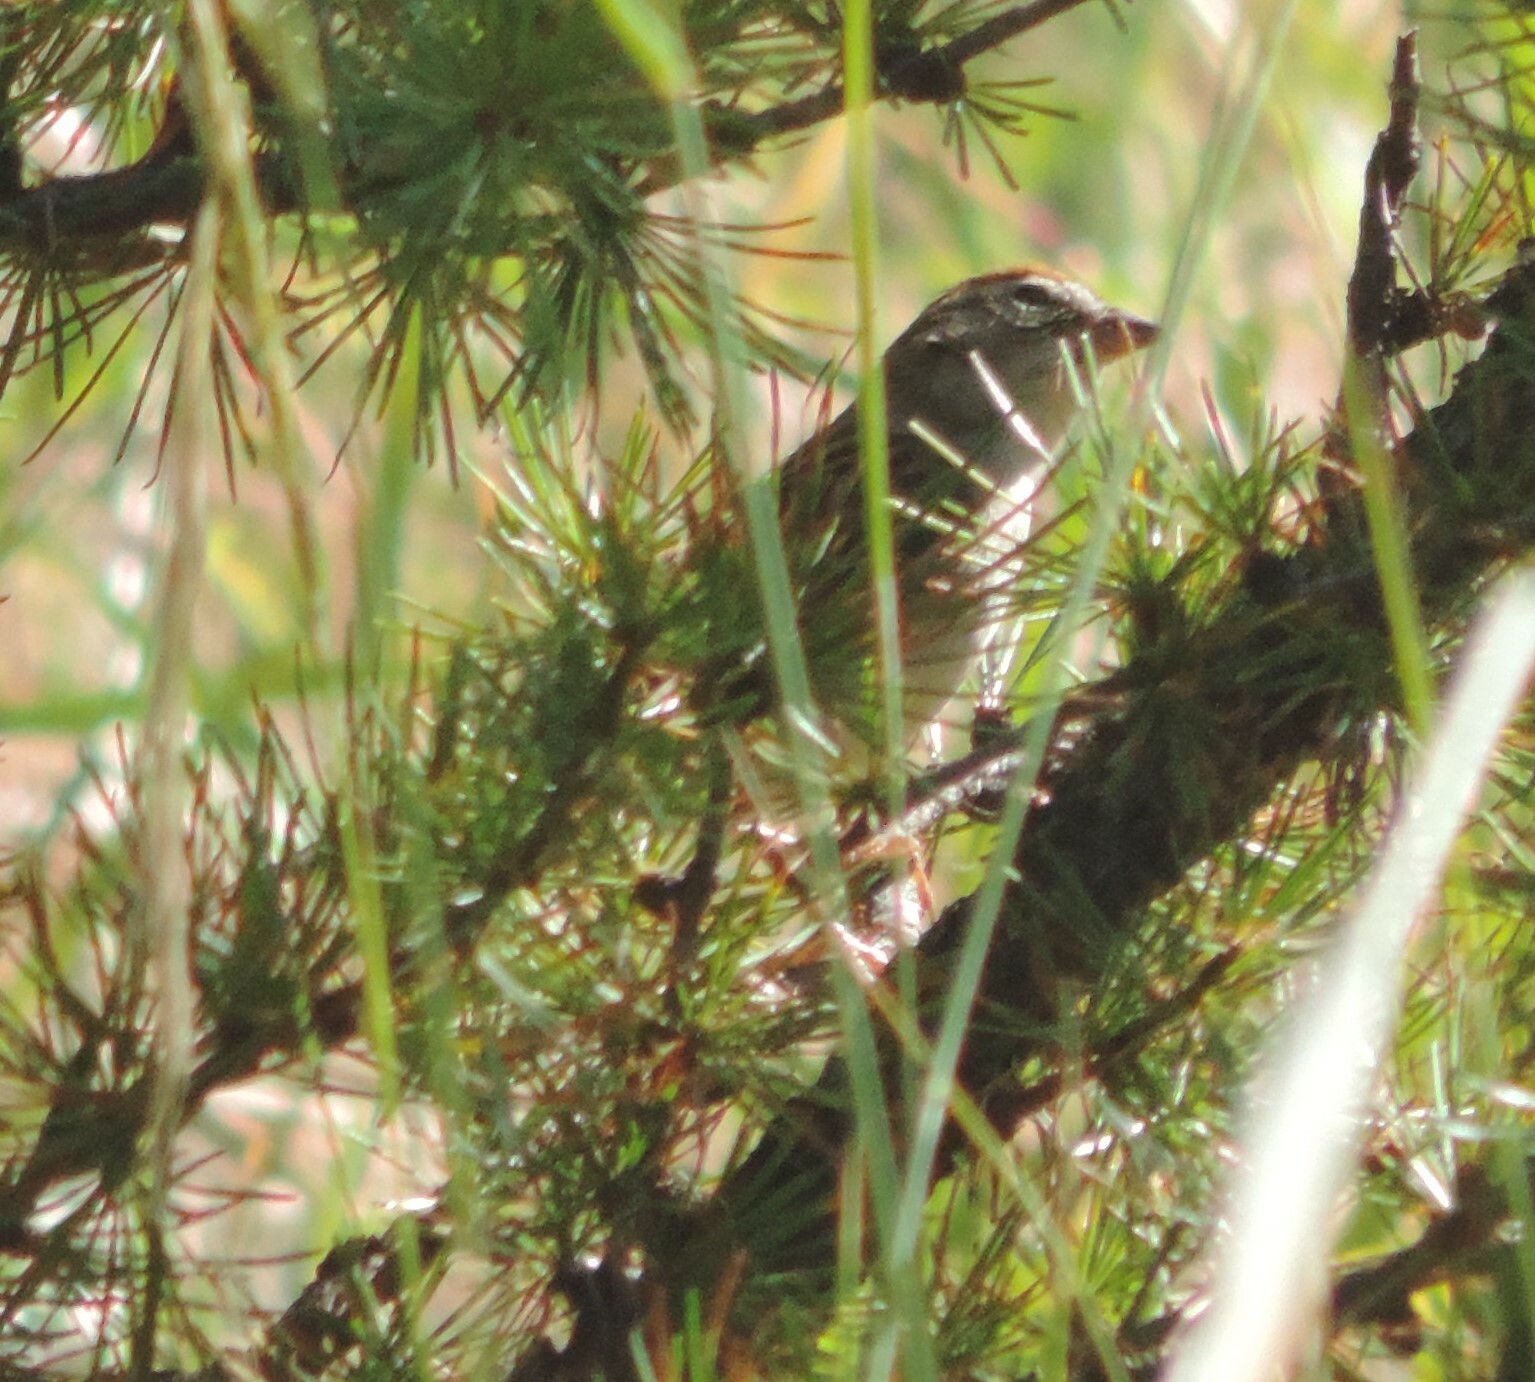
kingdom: Animalia
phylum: Chordata
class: Aves
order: Passeriformes
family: Passerellidae
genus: Spizella
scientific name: Spizella passerina
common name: Chipping sparrow
